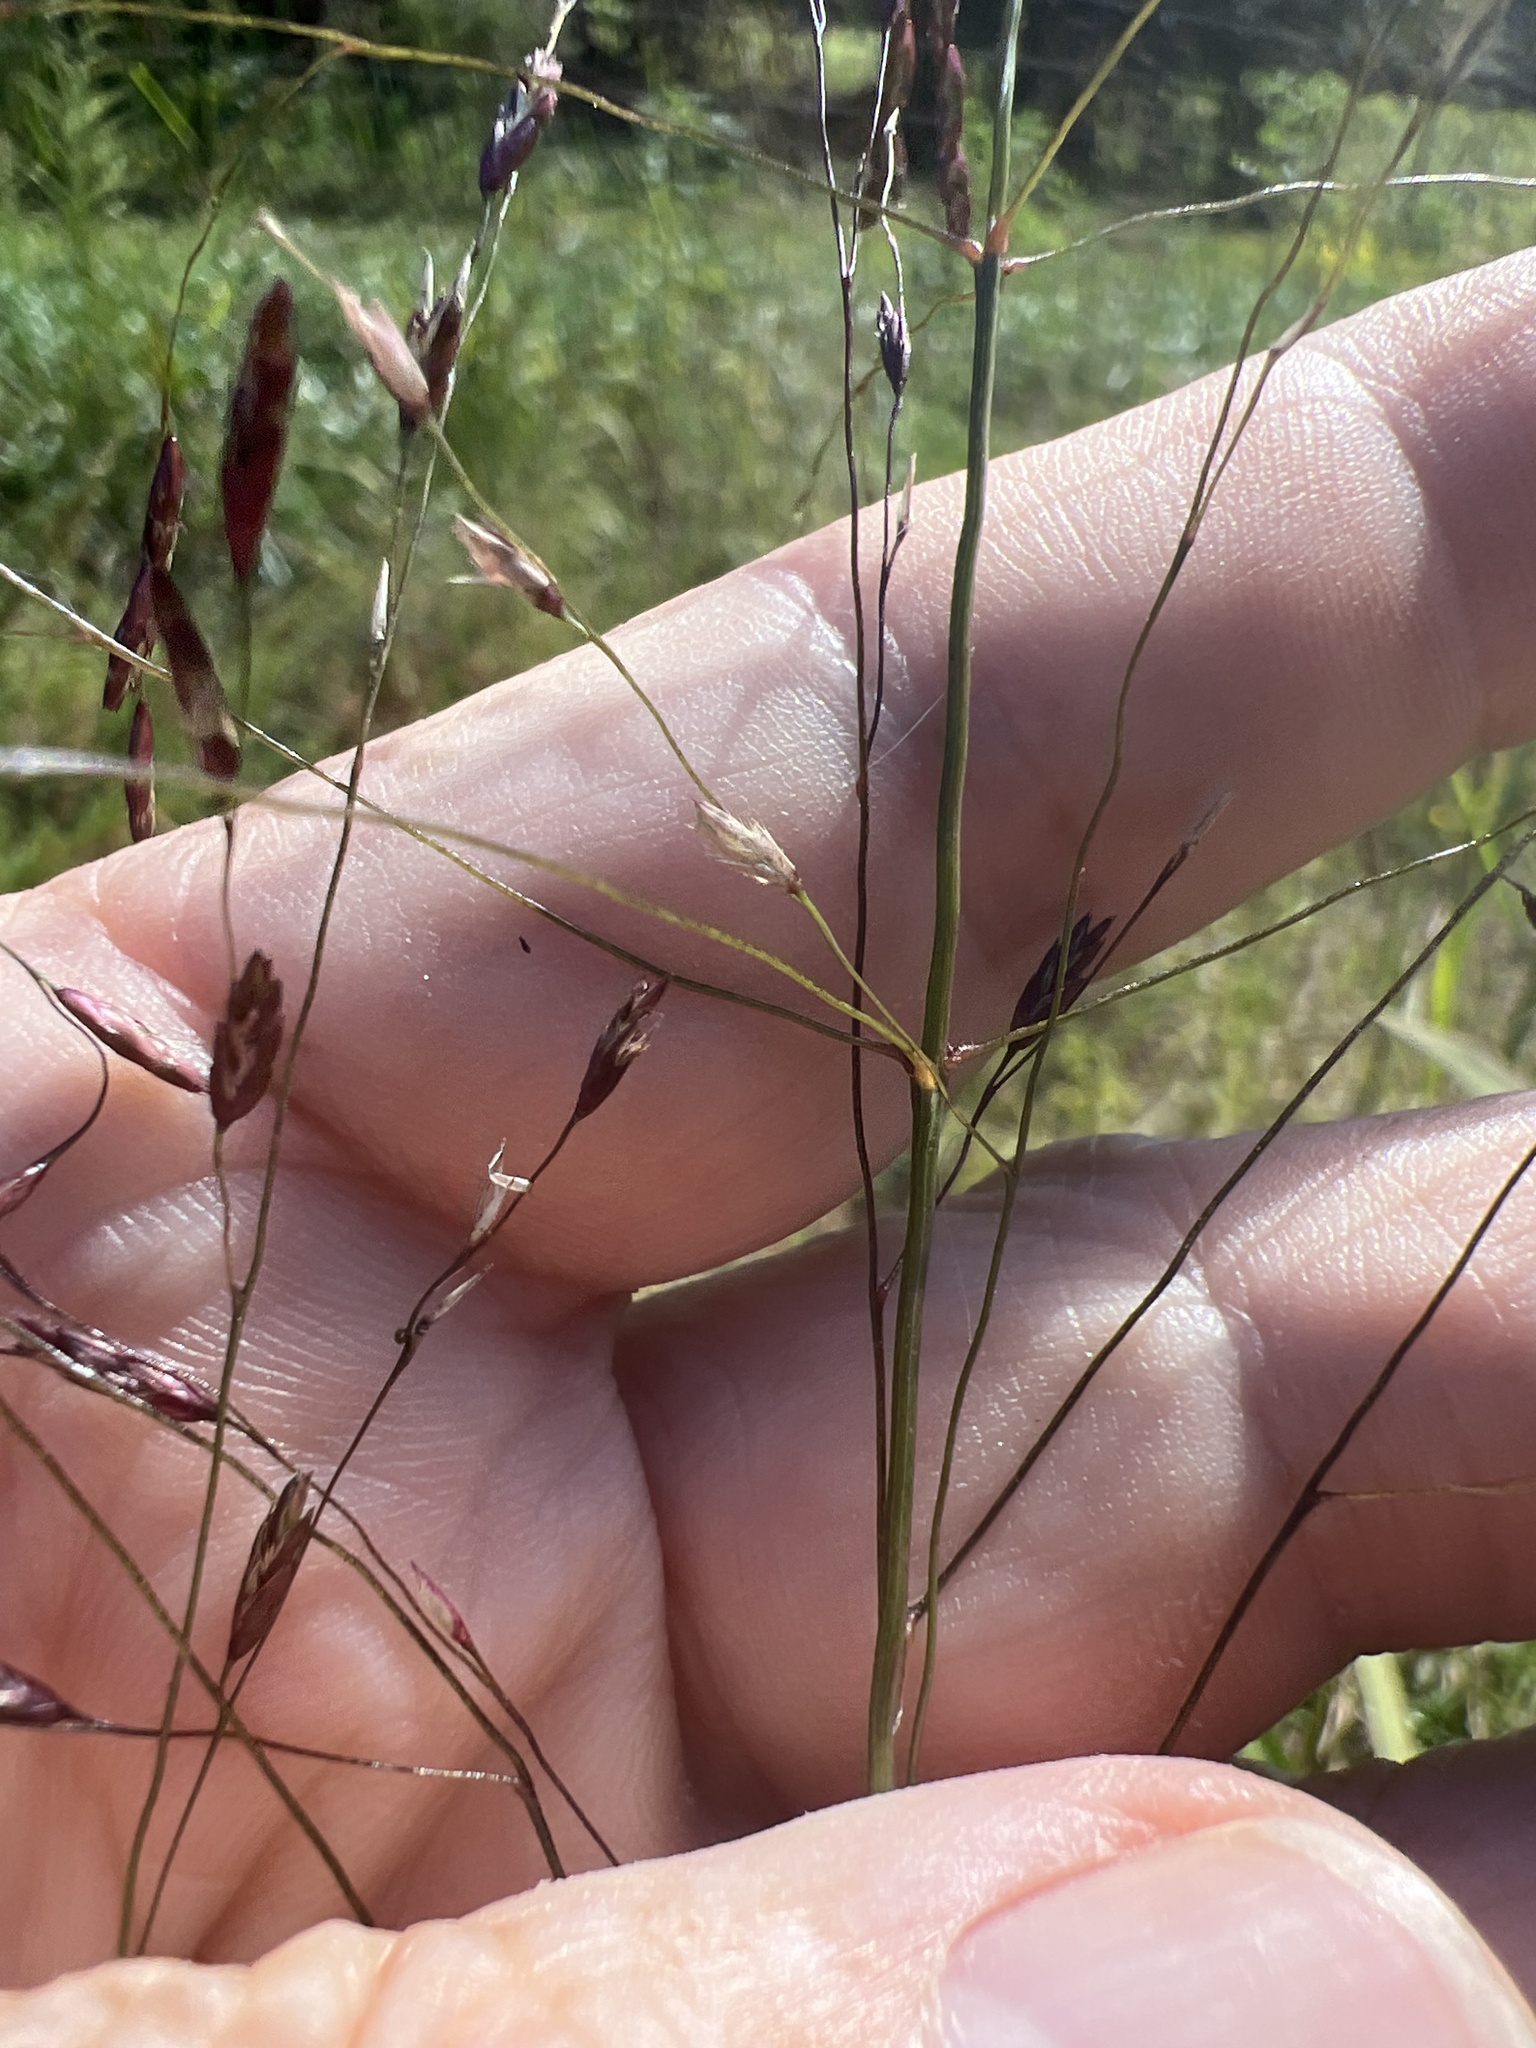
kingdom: Plantae
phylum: Tracheophyta
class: Liliopsida
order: Poales
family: Poaceae
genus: Tridens
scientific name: Tridens flavus
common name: Purpletop
